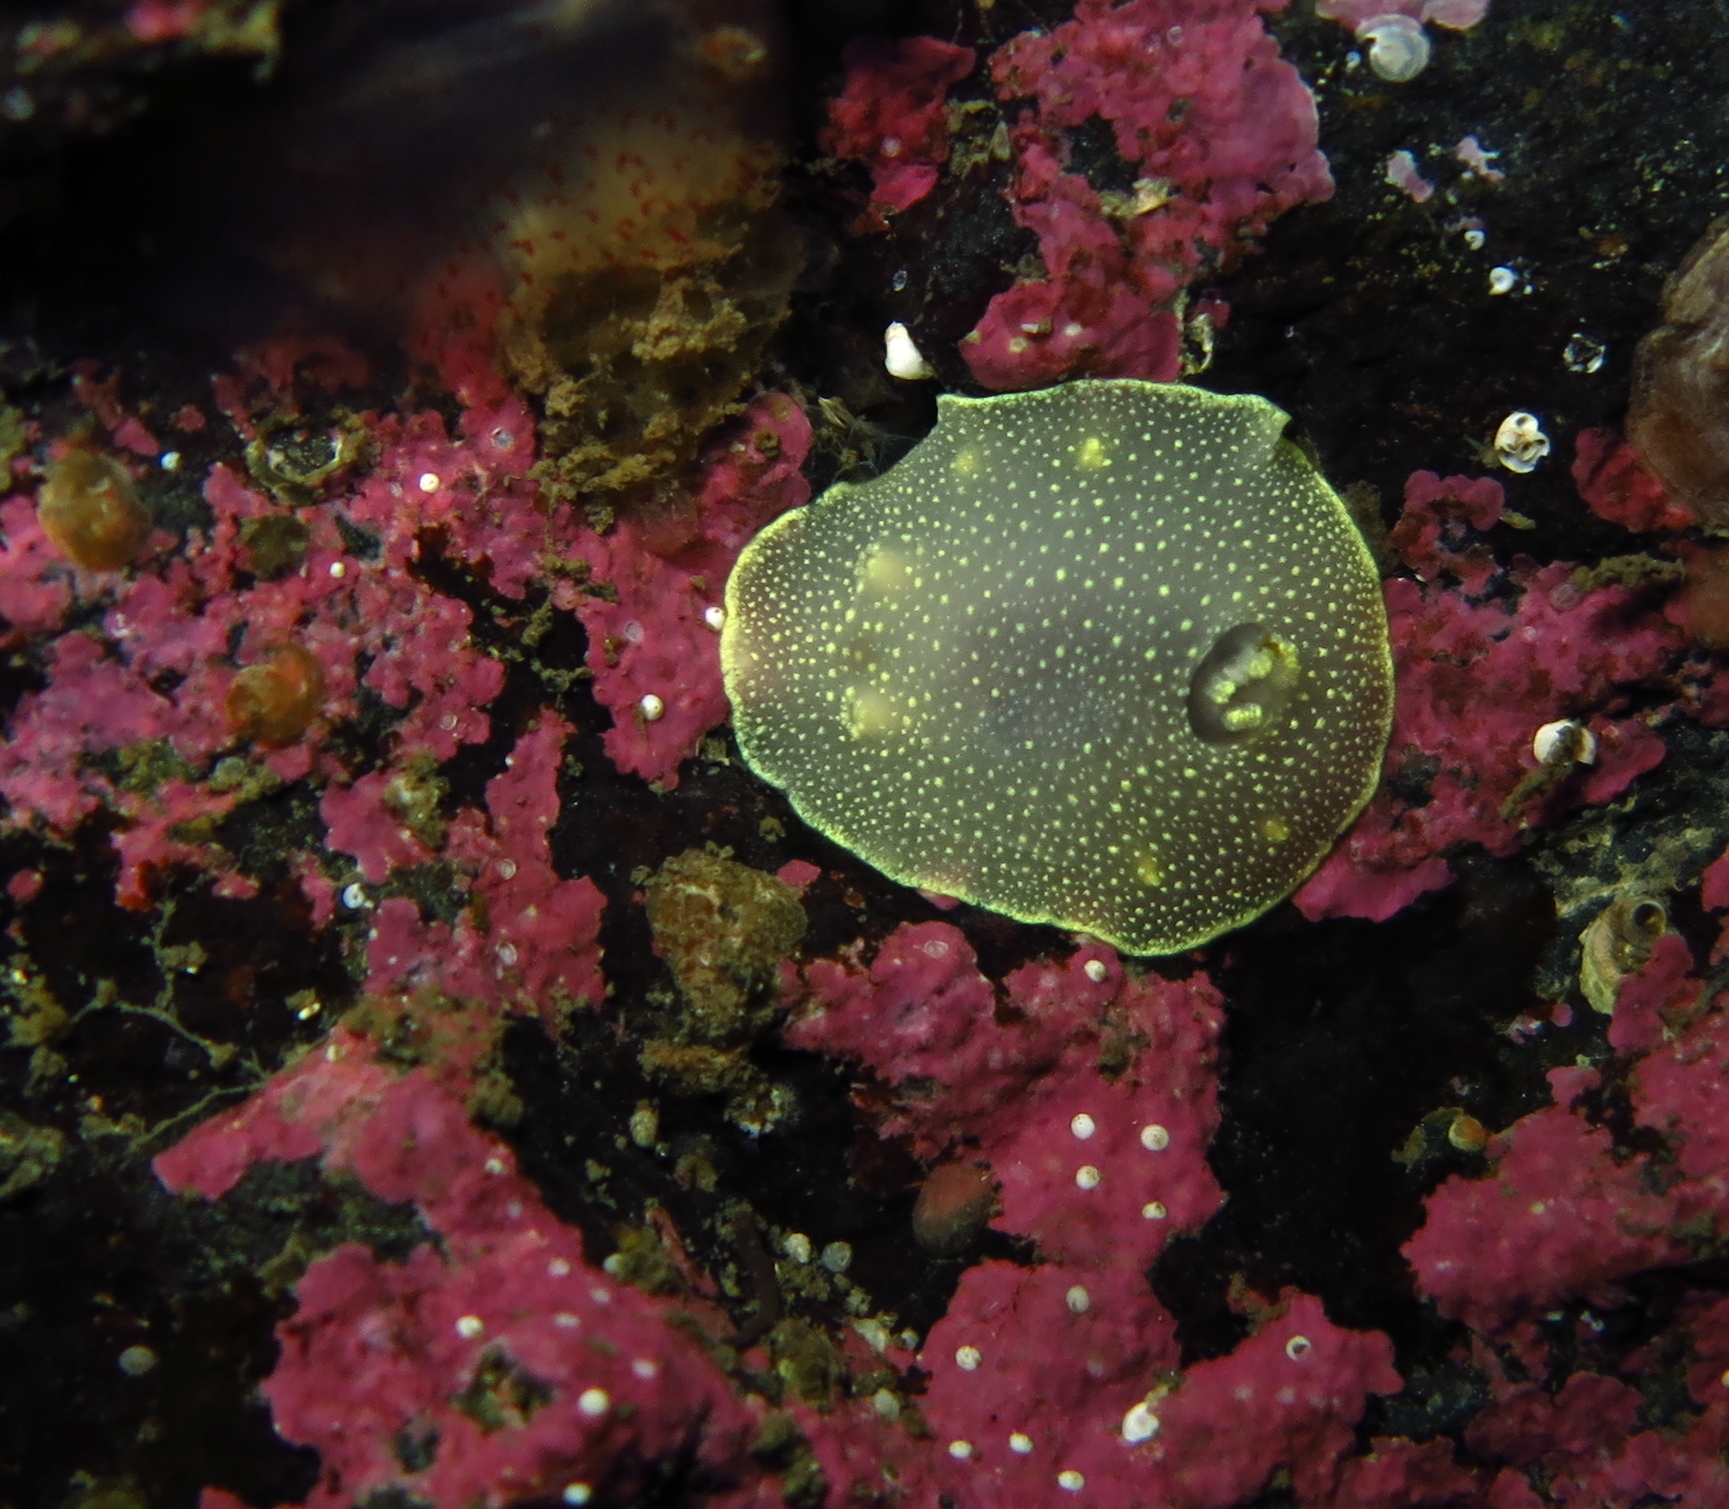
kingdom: Animalia
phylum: Mollusca
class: Gastropoda
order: Nudibranchia
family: Cadlinidae
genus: Cadlina
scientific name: Cadlina laevis
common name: White atlantic cadlina
